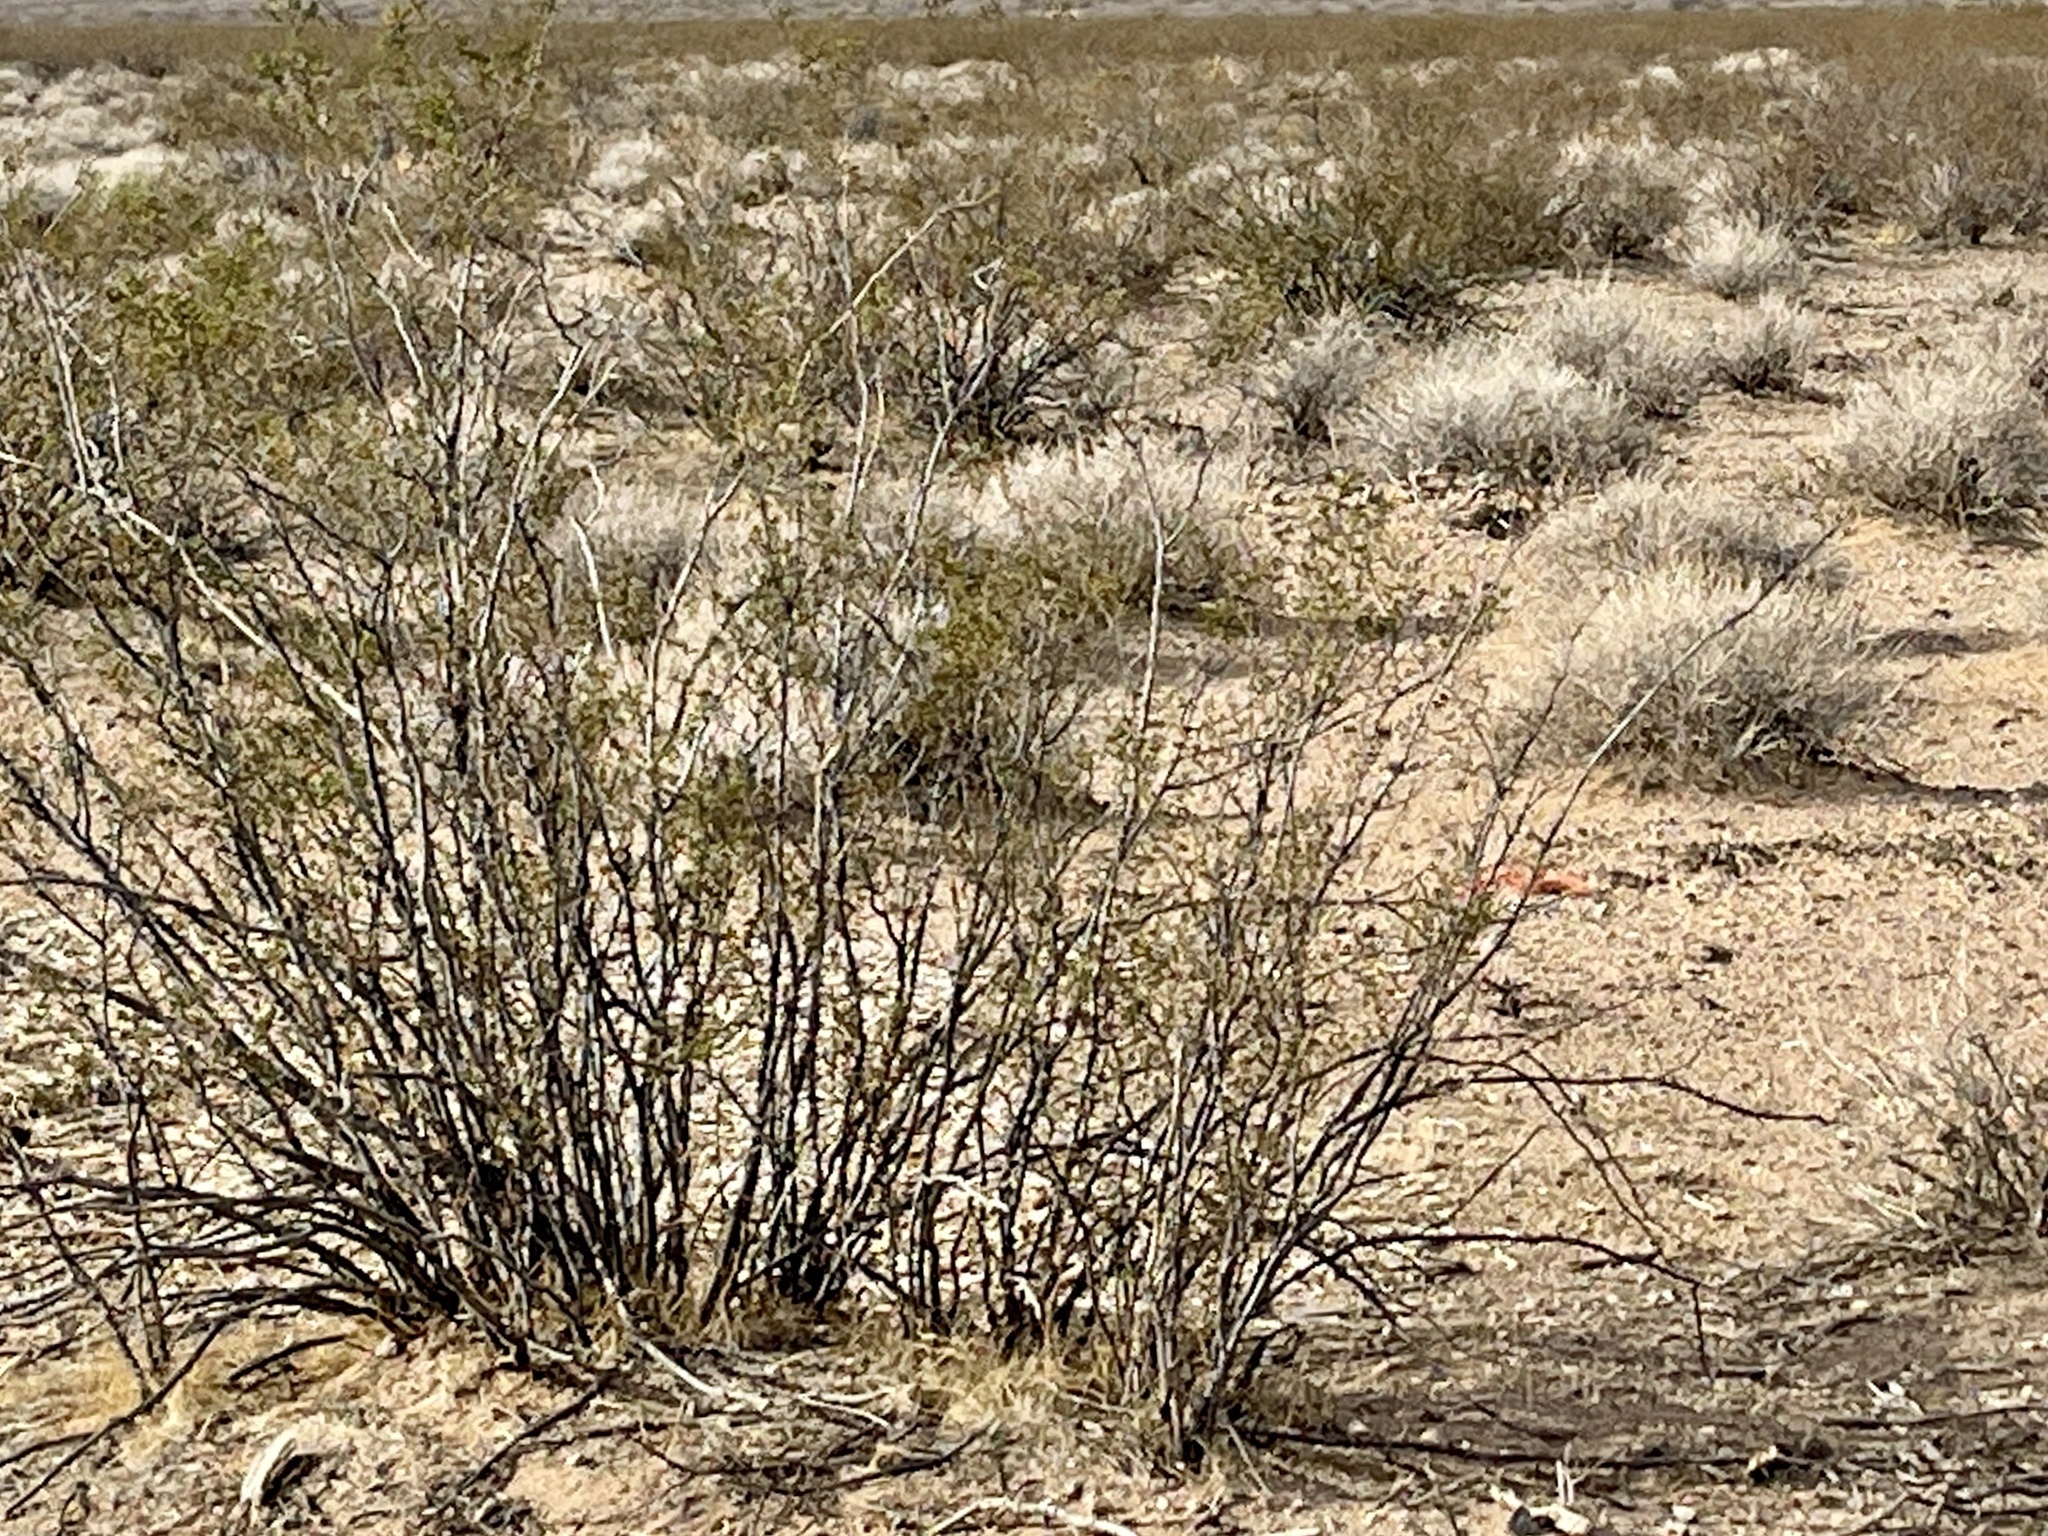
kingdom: Plantae
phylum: Tracheophyta
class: Magnoliopsida
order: Zygophyllales
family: Zygophyllaceae
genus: Larrea
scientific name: Larrea tridentata
